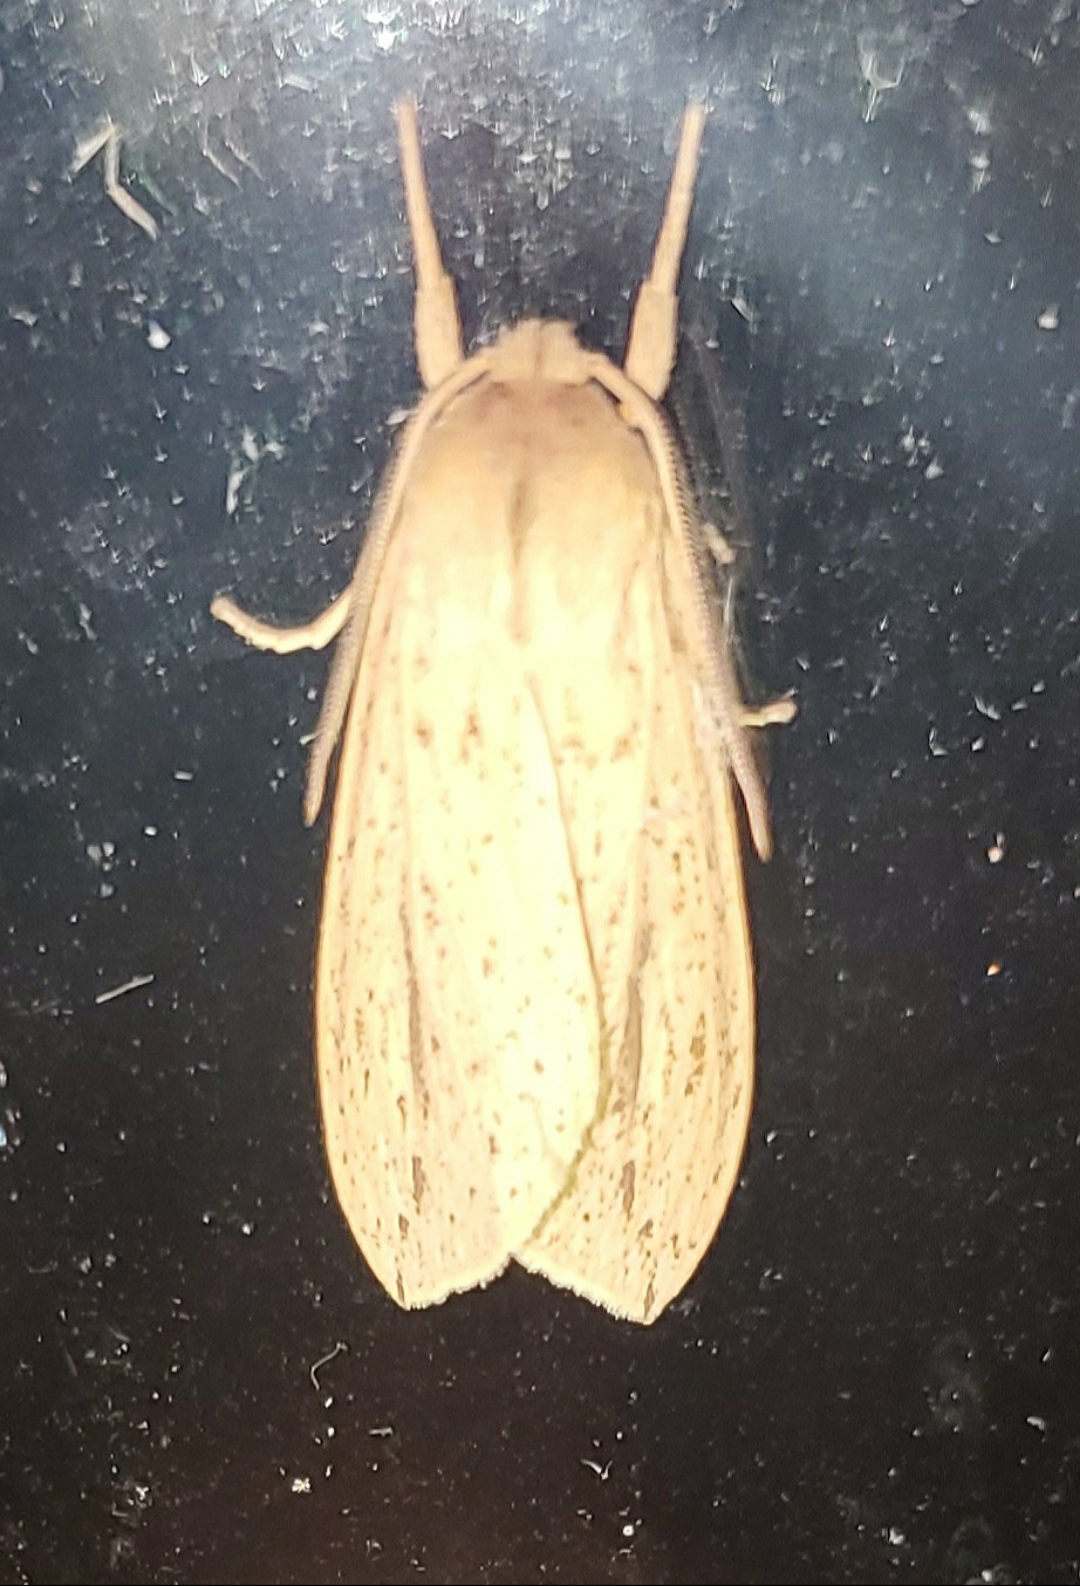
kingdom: Animalia
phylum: Arthropoda
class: Insecta
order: Lepidoptera
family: Erebidae
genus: Leucanopsis
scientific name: Leucanopsis longa
